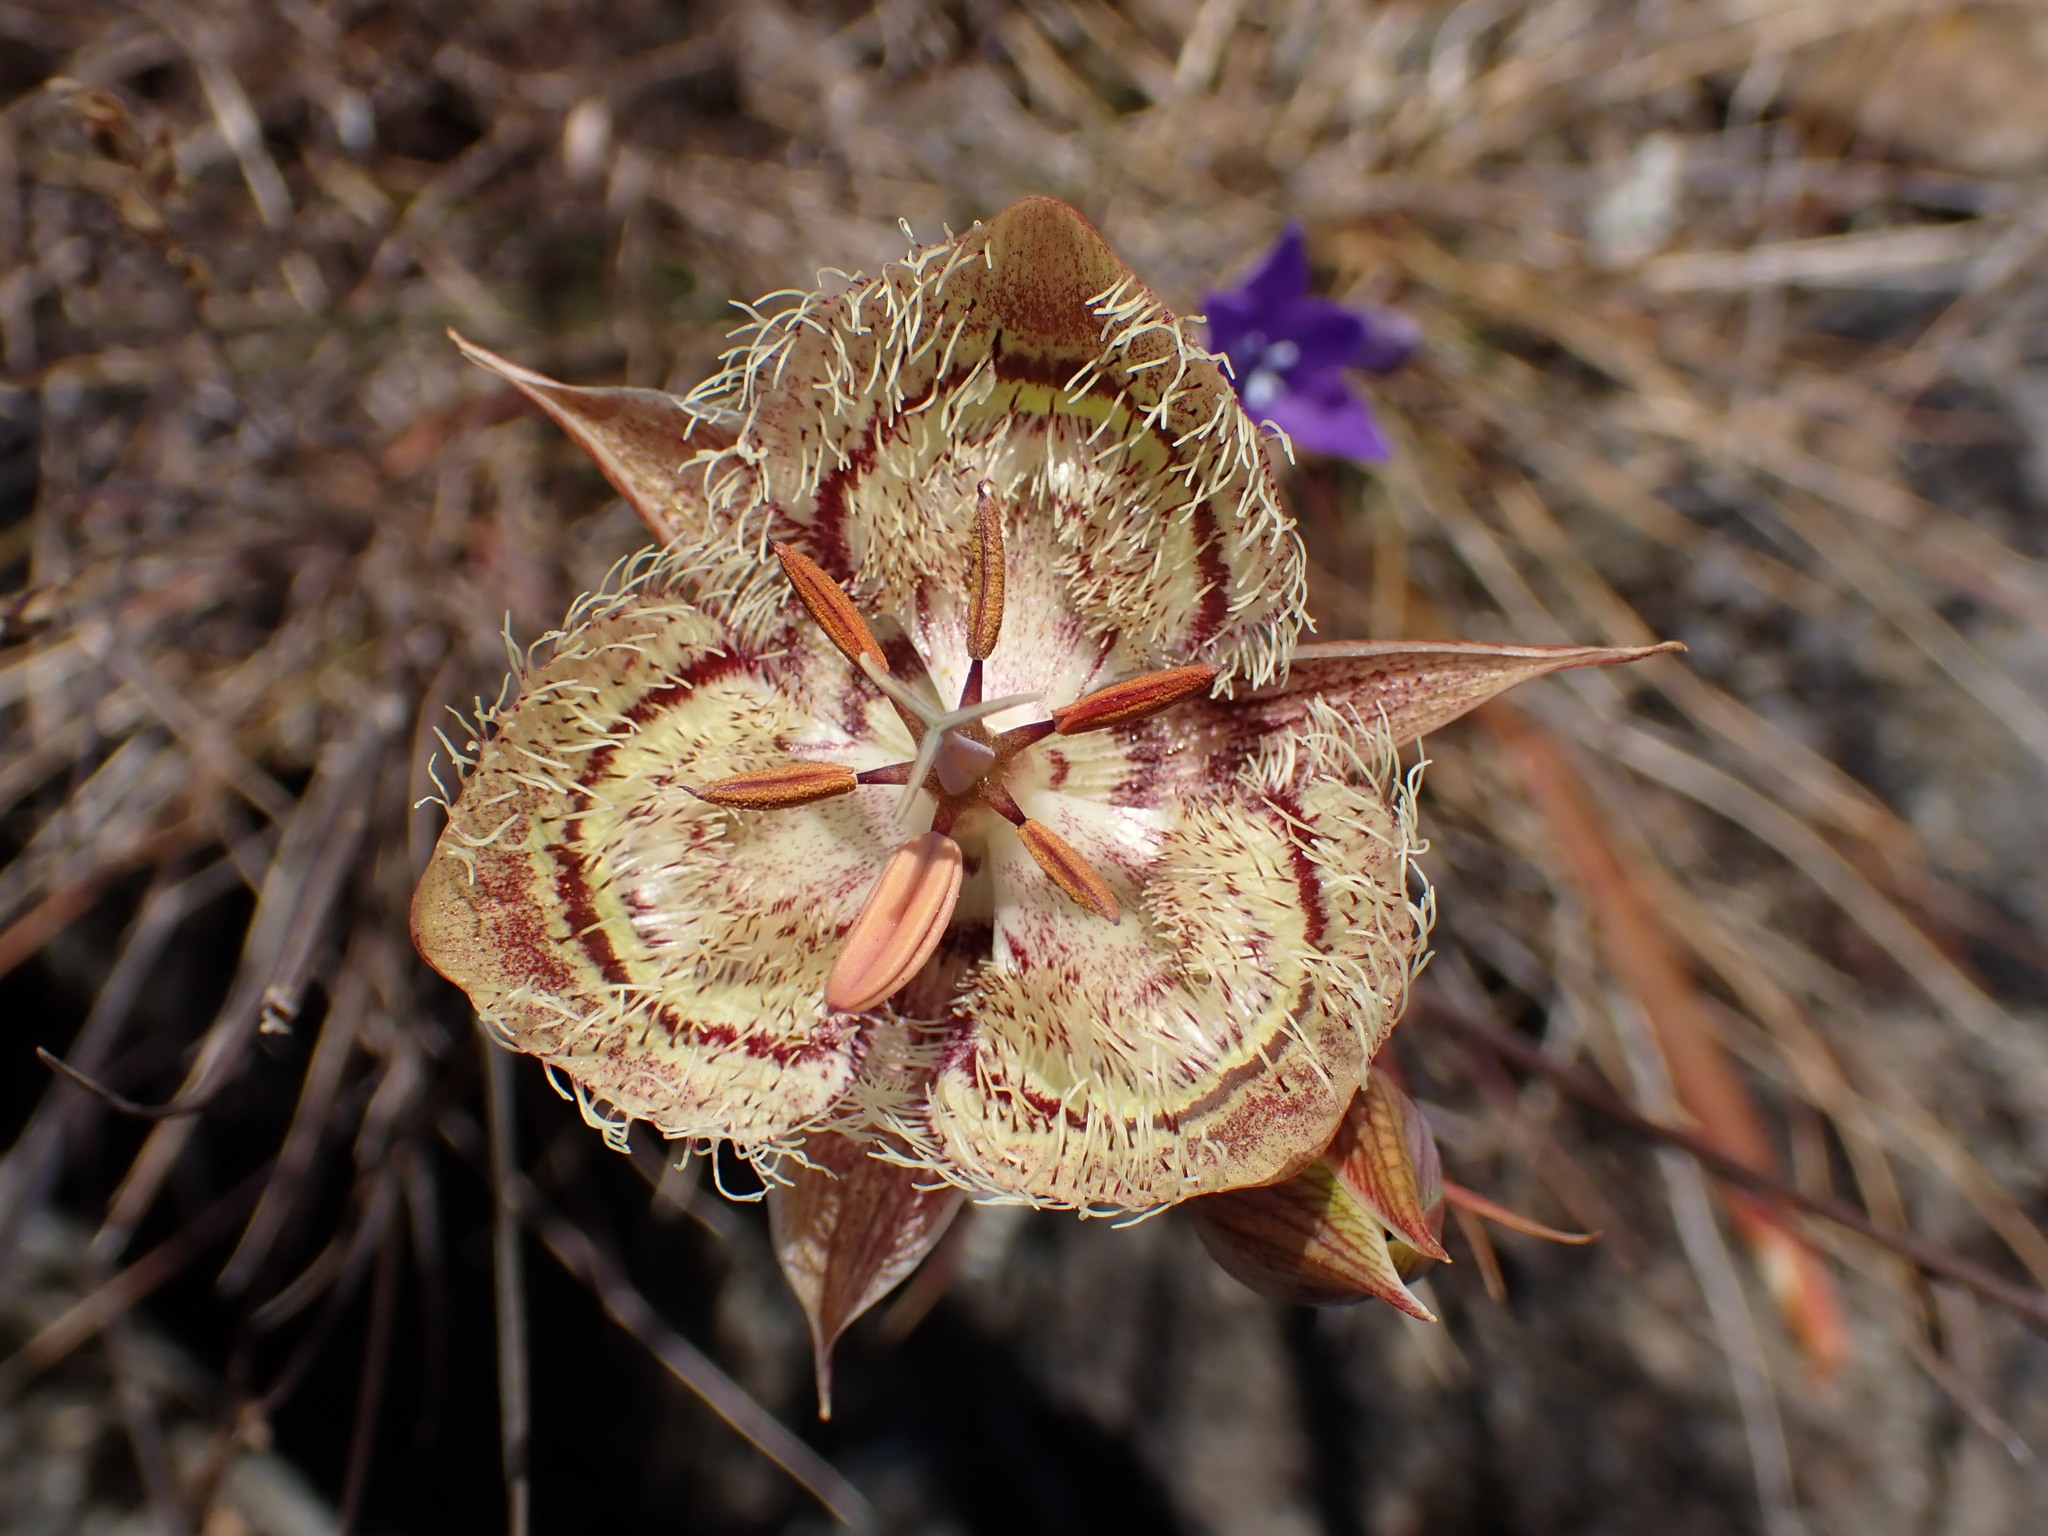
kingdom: Plantae
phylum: Tracheophyta
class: Liliopsida
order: Liliales
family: Liliaceae
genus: Calochortus
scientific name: Calochortus tiburonensis
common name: Tiburon mariposa-lily
